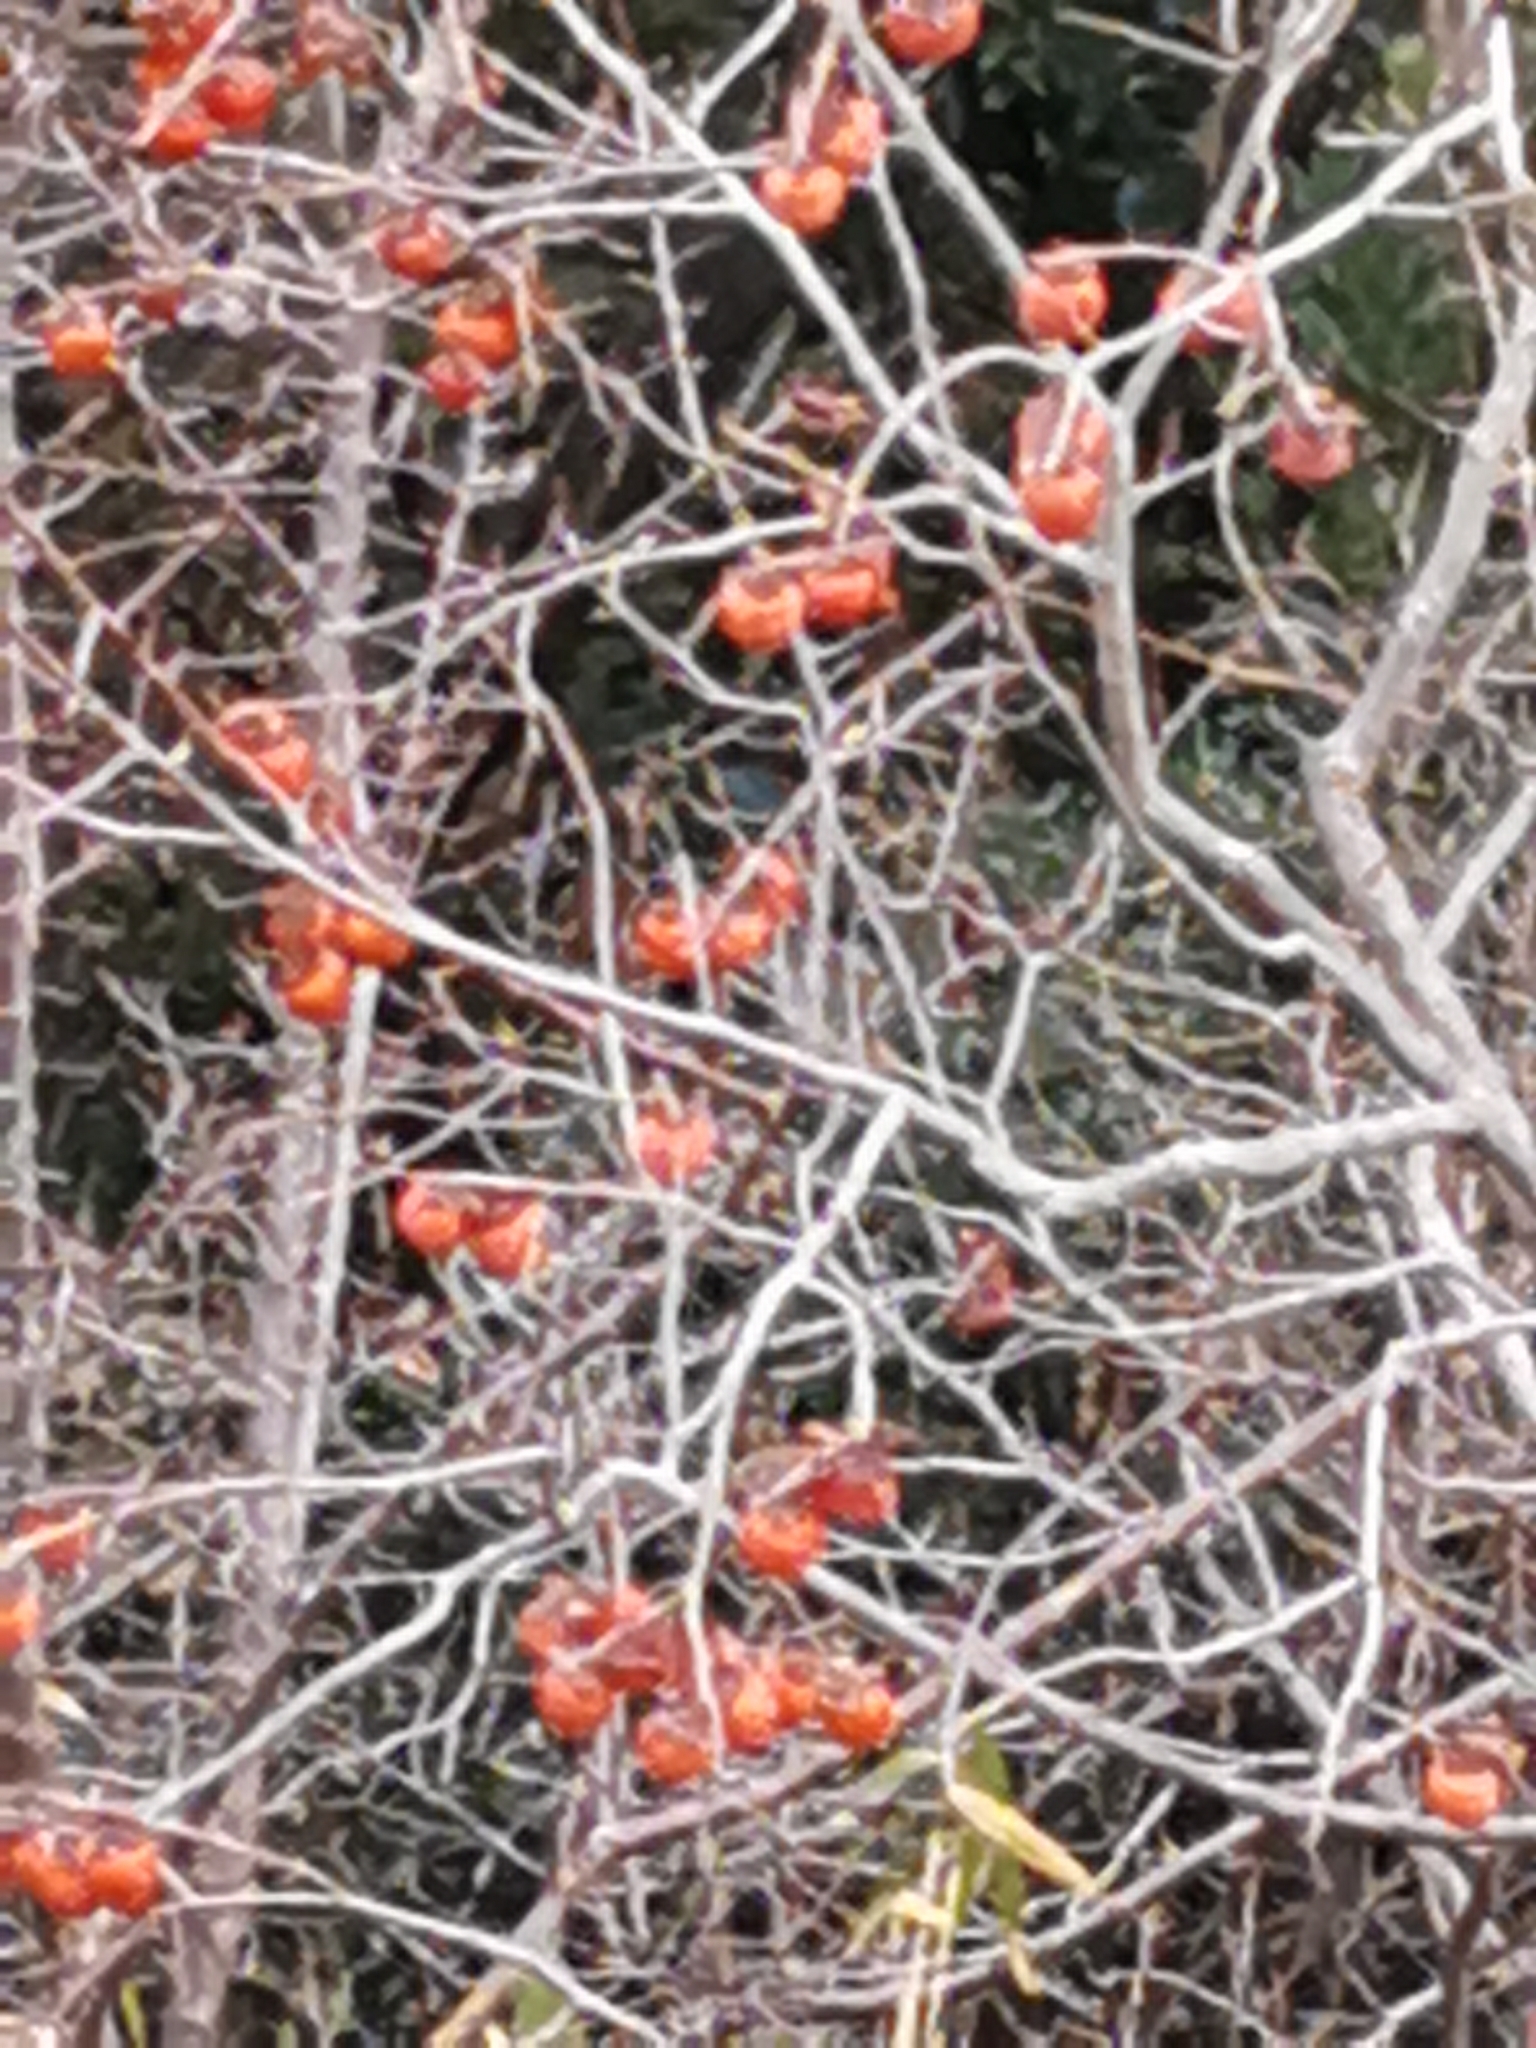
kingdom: Plantae
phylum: Tracheophyta
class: Magnoliopsida
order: Ericales
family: Ebenaceae
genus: Diospyros
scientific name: Diospyros kaki
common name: Persimmon
